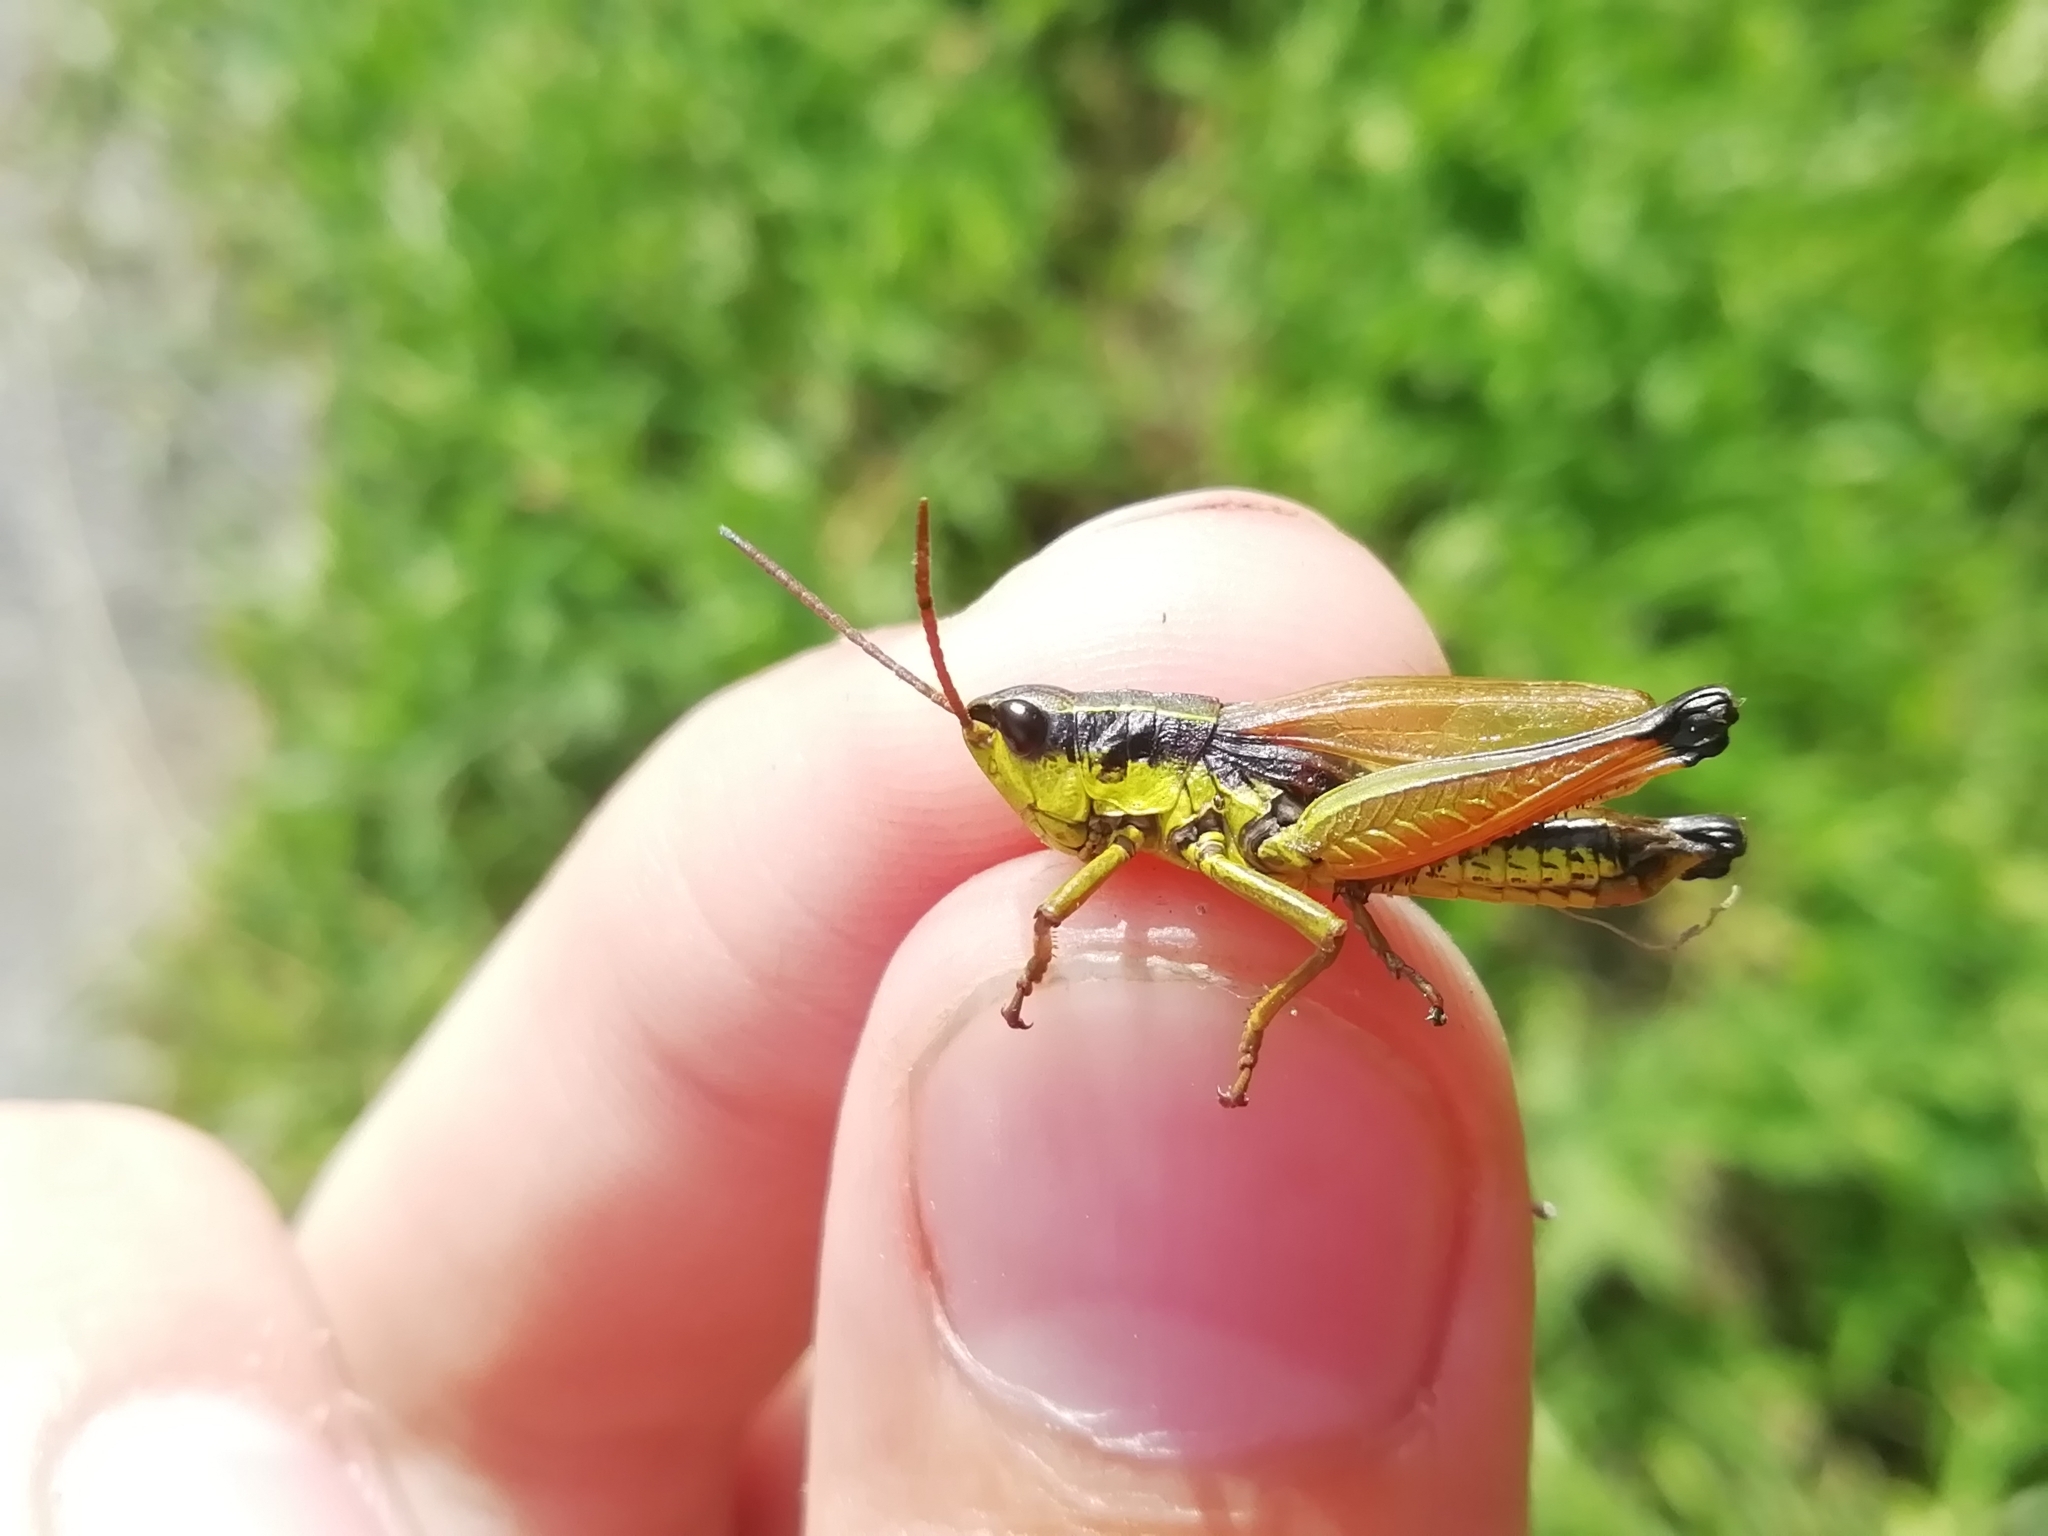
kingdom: Animalia
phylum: Arthropoda
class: Insecta
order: Orthoptera
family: Acrididae
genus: Podismopsis
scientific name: Podismopsis poppiusi
